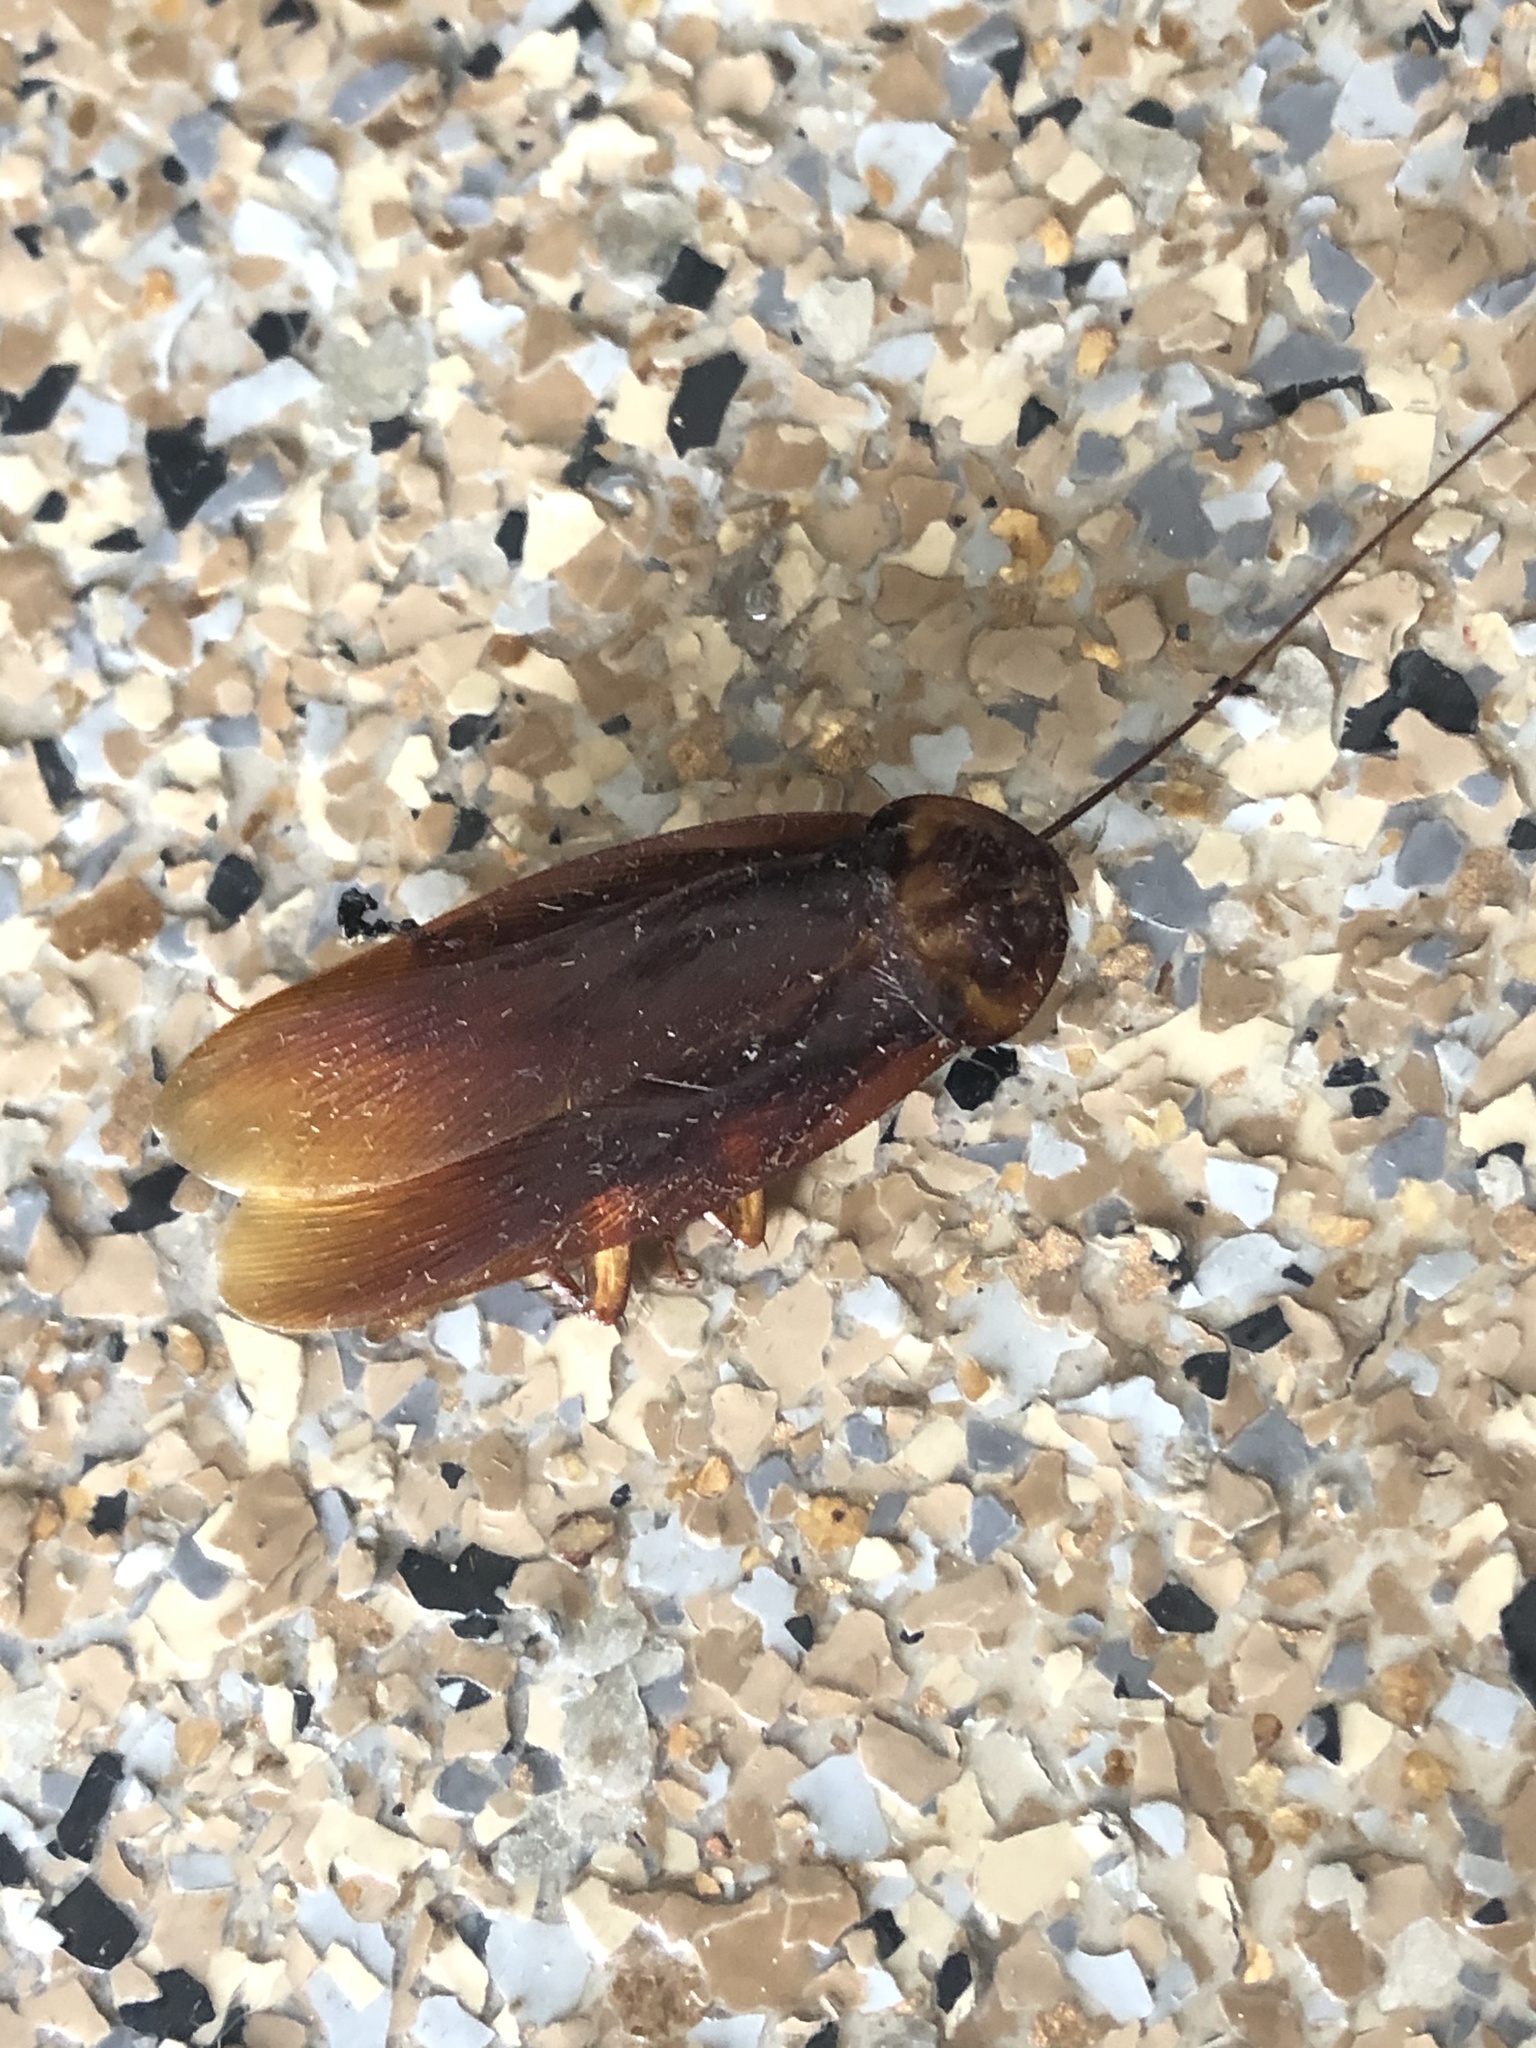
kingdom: Animalia
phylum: Arthropoda
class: Insecta
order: Blattodea
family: Blattidae
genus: Periplaneta
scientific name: Periplaneta americana
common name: American cockroach
